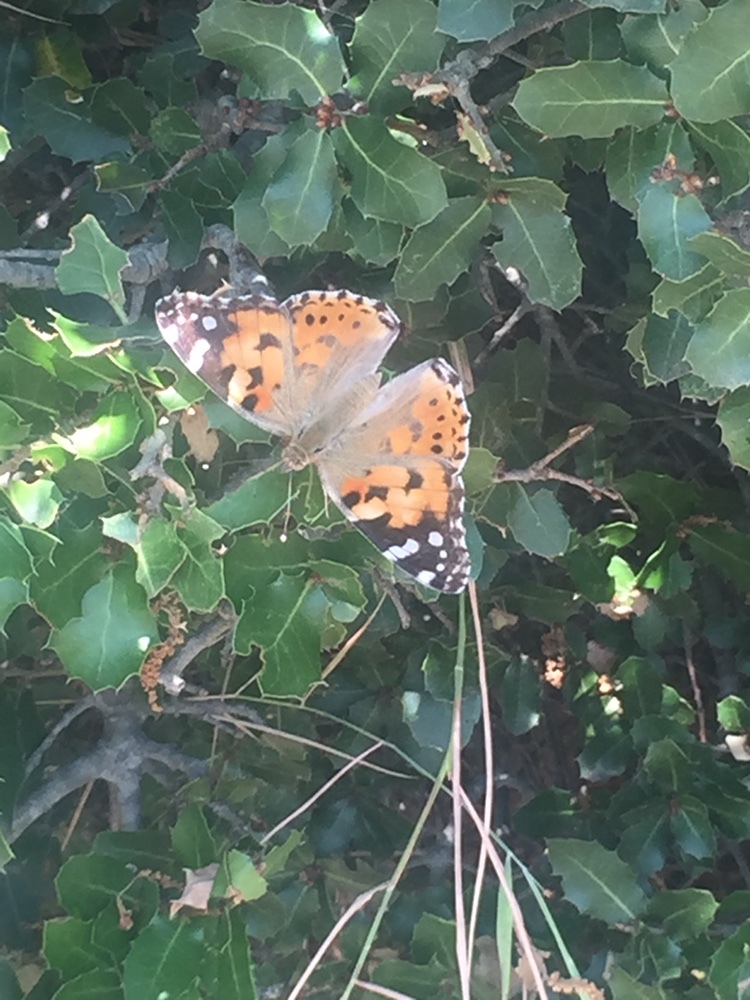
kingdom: Animalia
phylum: Arthropoda
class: Insecta
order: Lepidoptera
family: Nymphalidae
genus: Vanessa
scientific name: Vanessa cardui
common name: Painted lady
